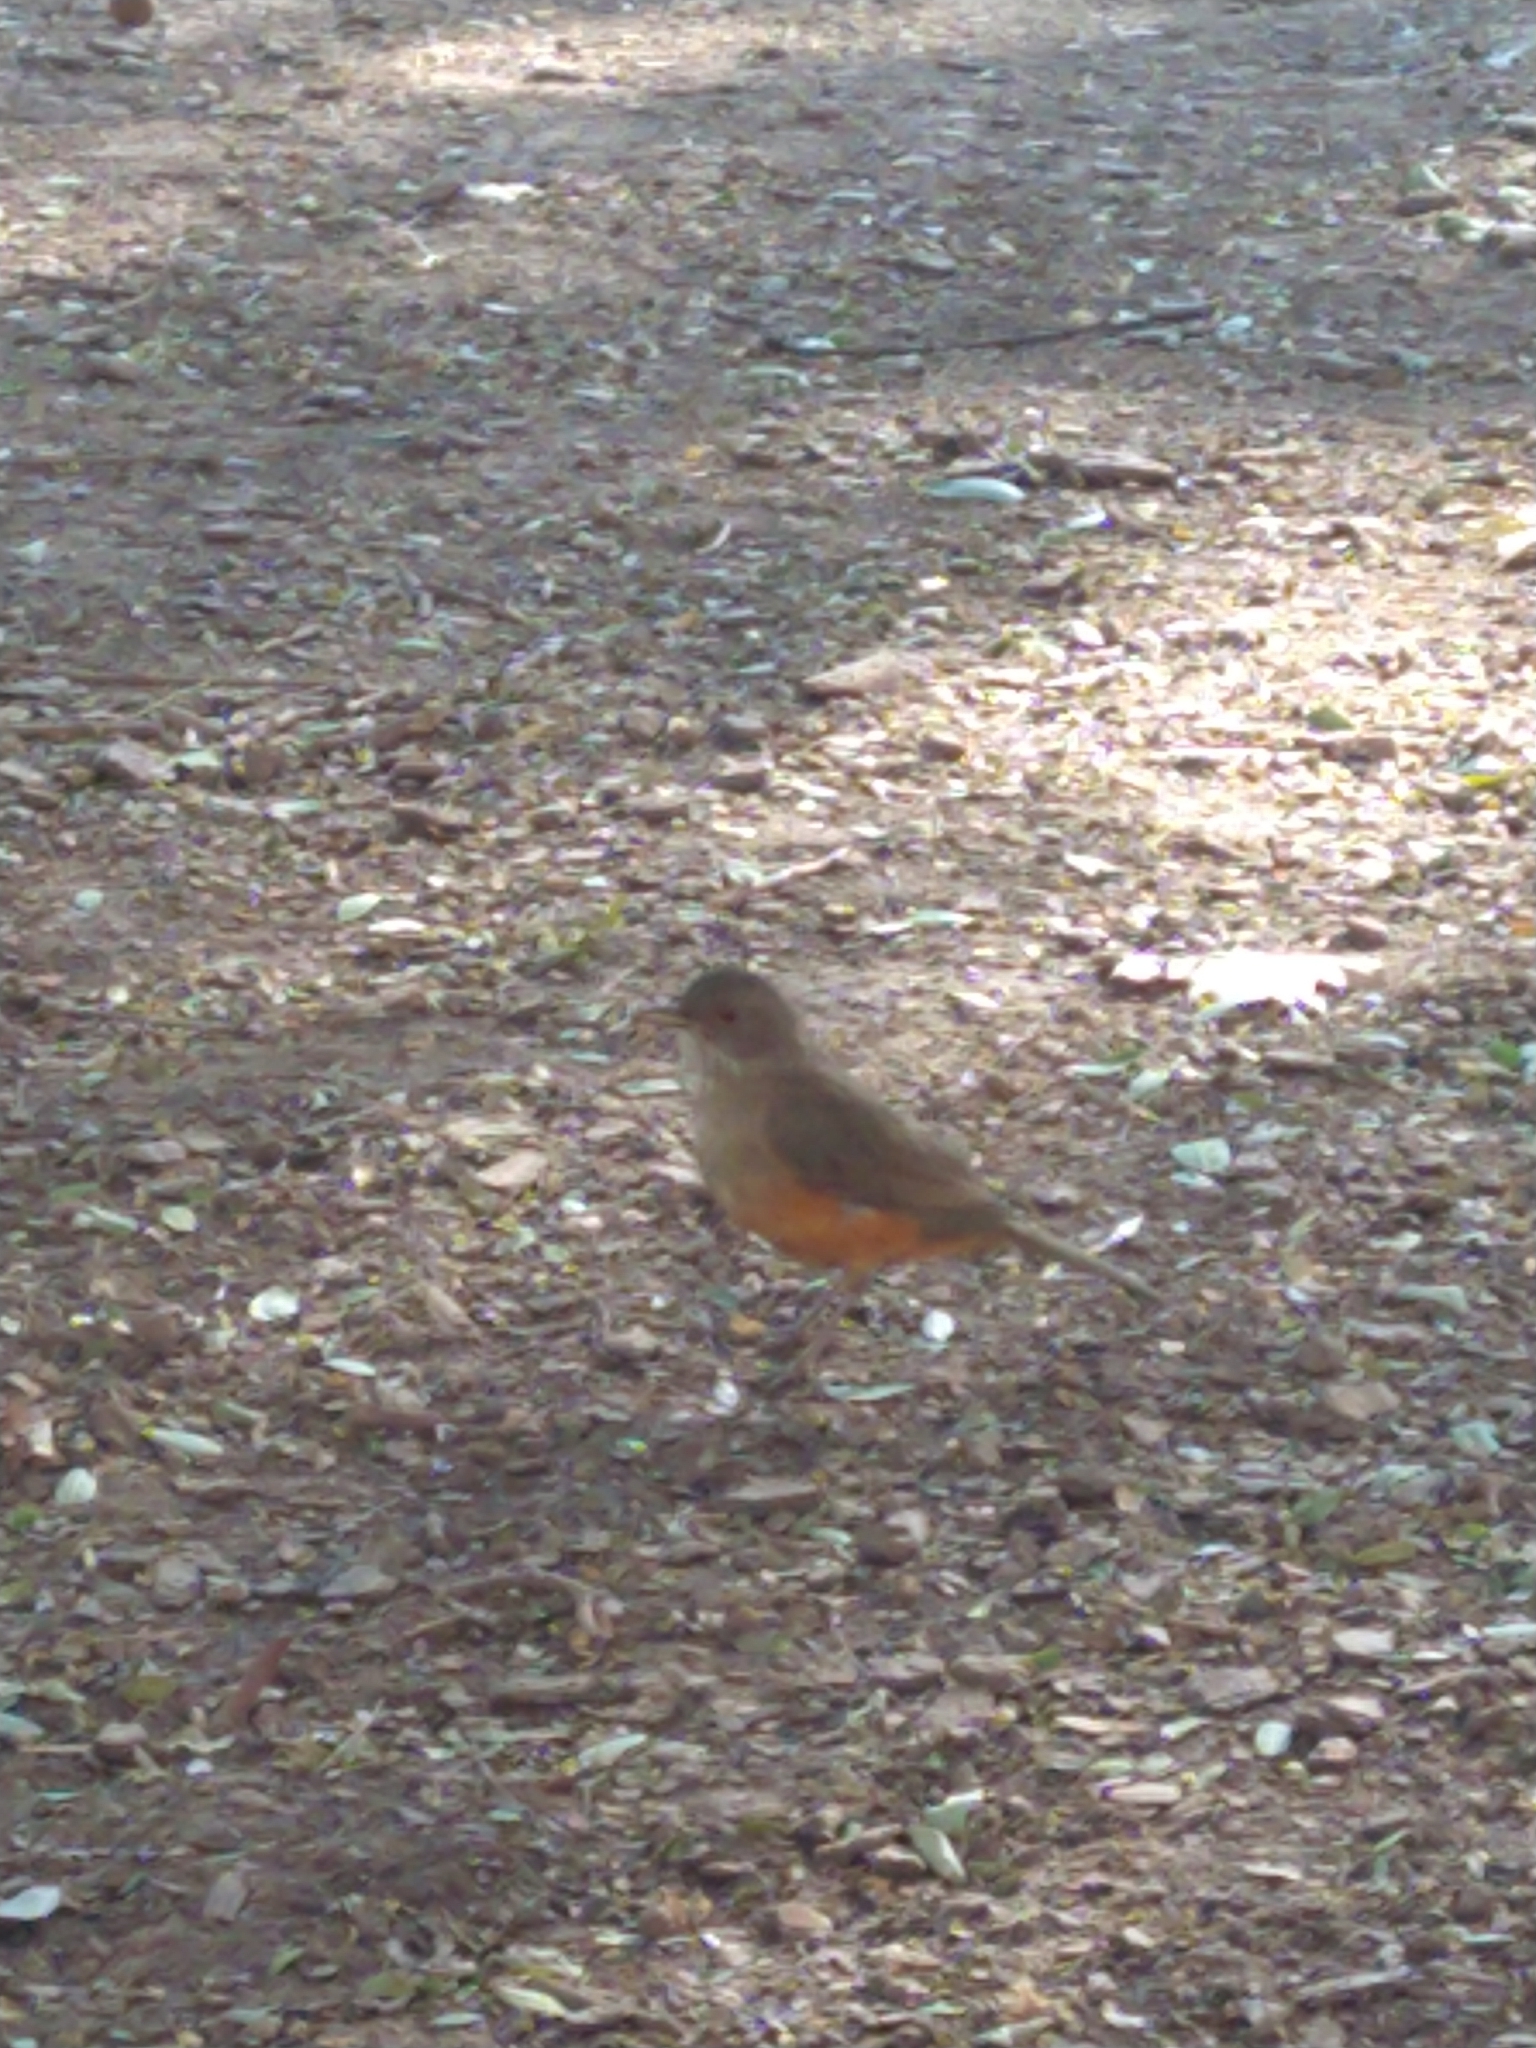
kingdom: Animalia
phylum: Chordata
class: Aves
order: Passeriformes
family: Turdidae
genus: Turdus
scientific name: Turdus rufiventris
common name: Rufous-bellied thrush
